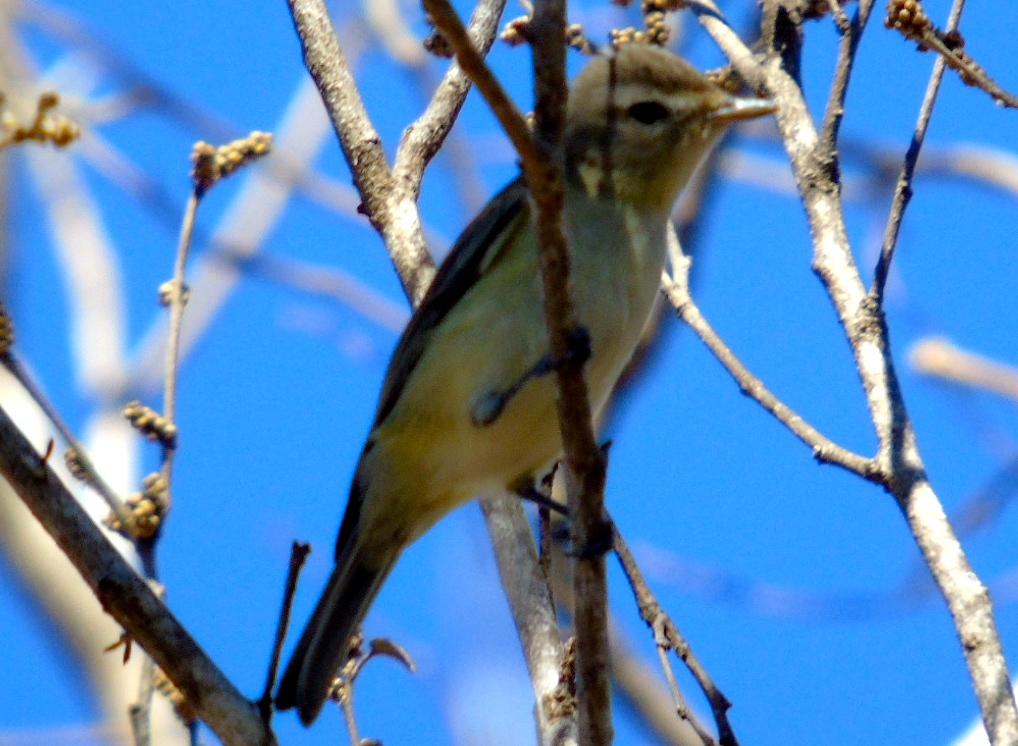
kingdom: Animalia
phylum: Chordata
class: Aves
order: Passeriformes
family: Vireonidae
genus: Vireo
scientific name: Vireo gilvus
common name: Warbling vireo
